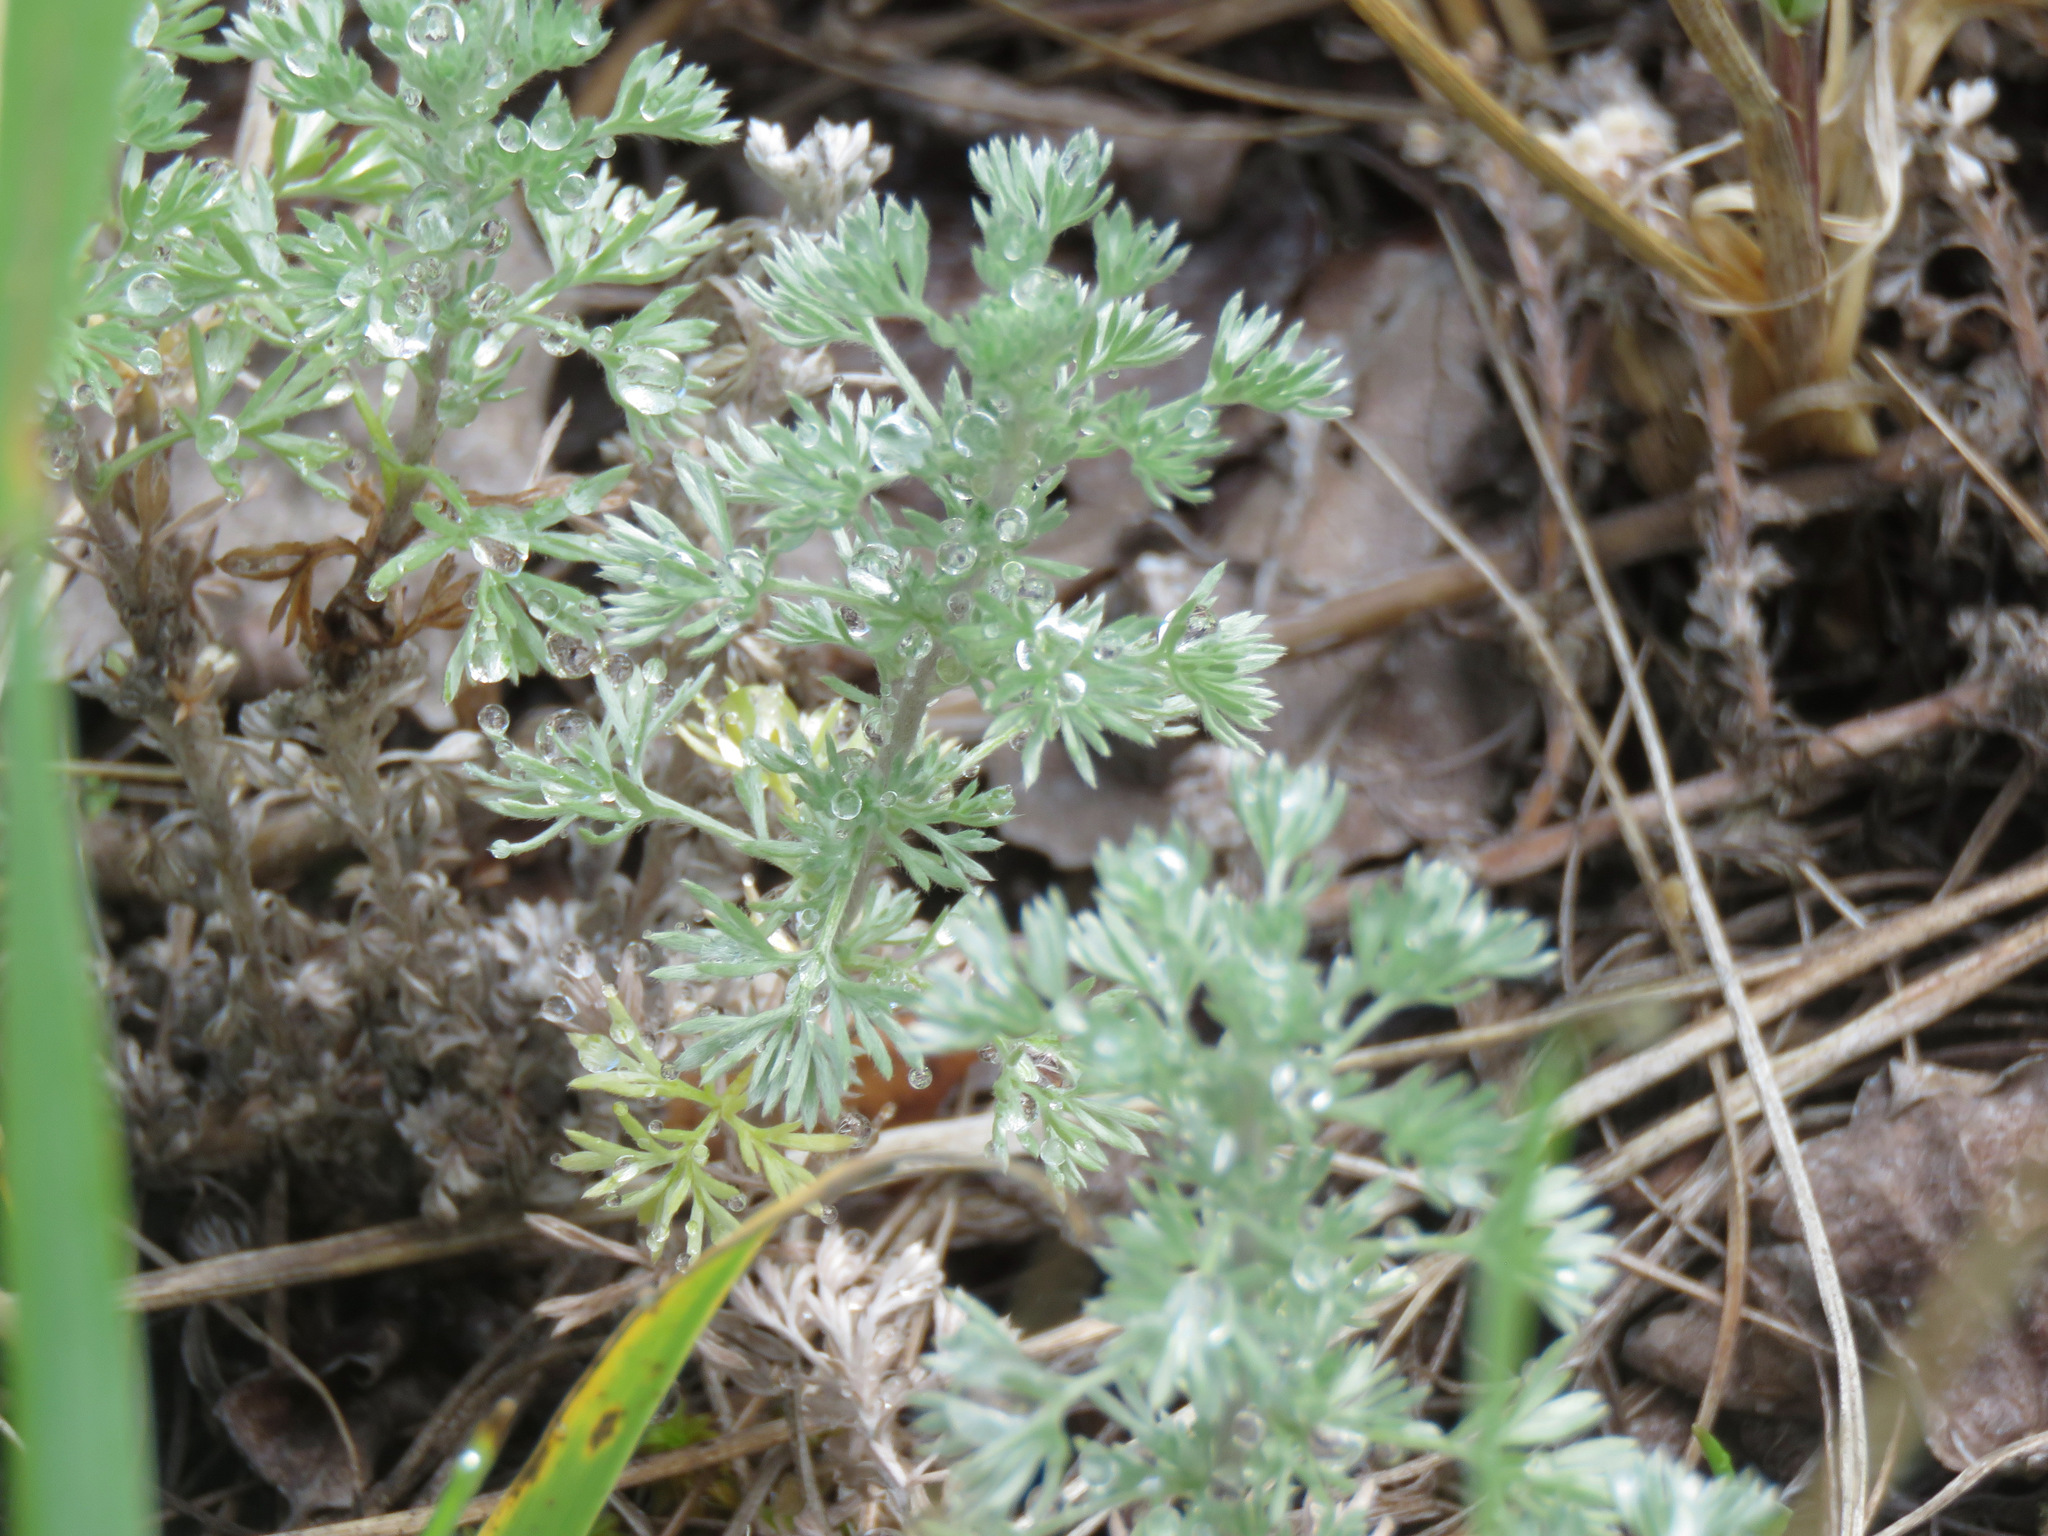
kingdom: Plantae
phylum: Tracheophyta
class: Magnoliopsida
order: Asterales
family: Asteraceae
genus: Artemisia
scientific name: Artemisia frigida
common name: Prairie sagewort
